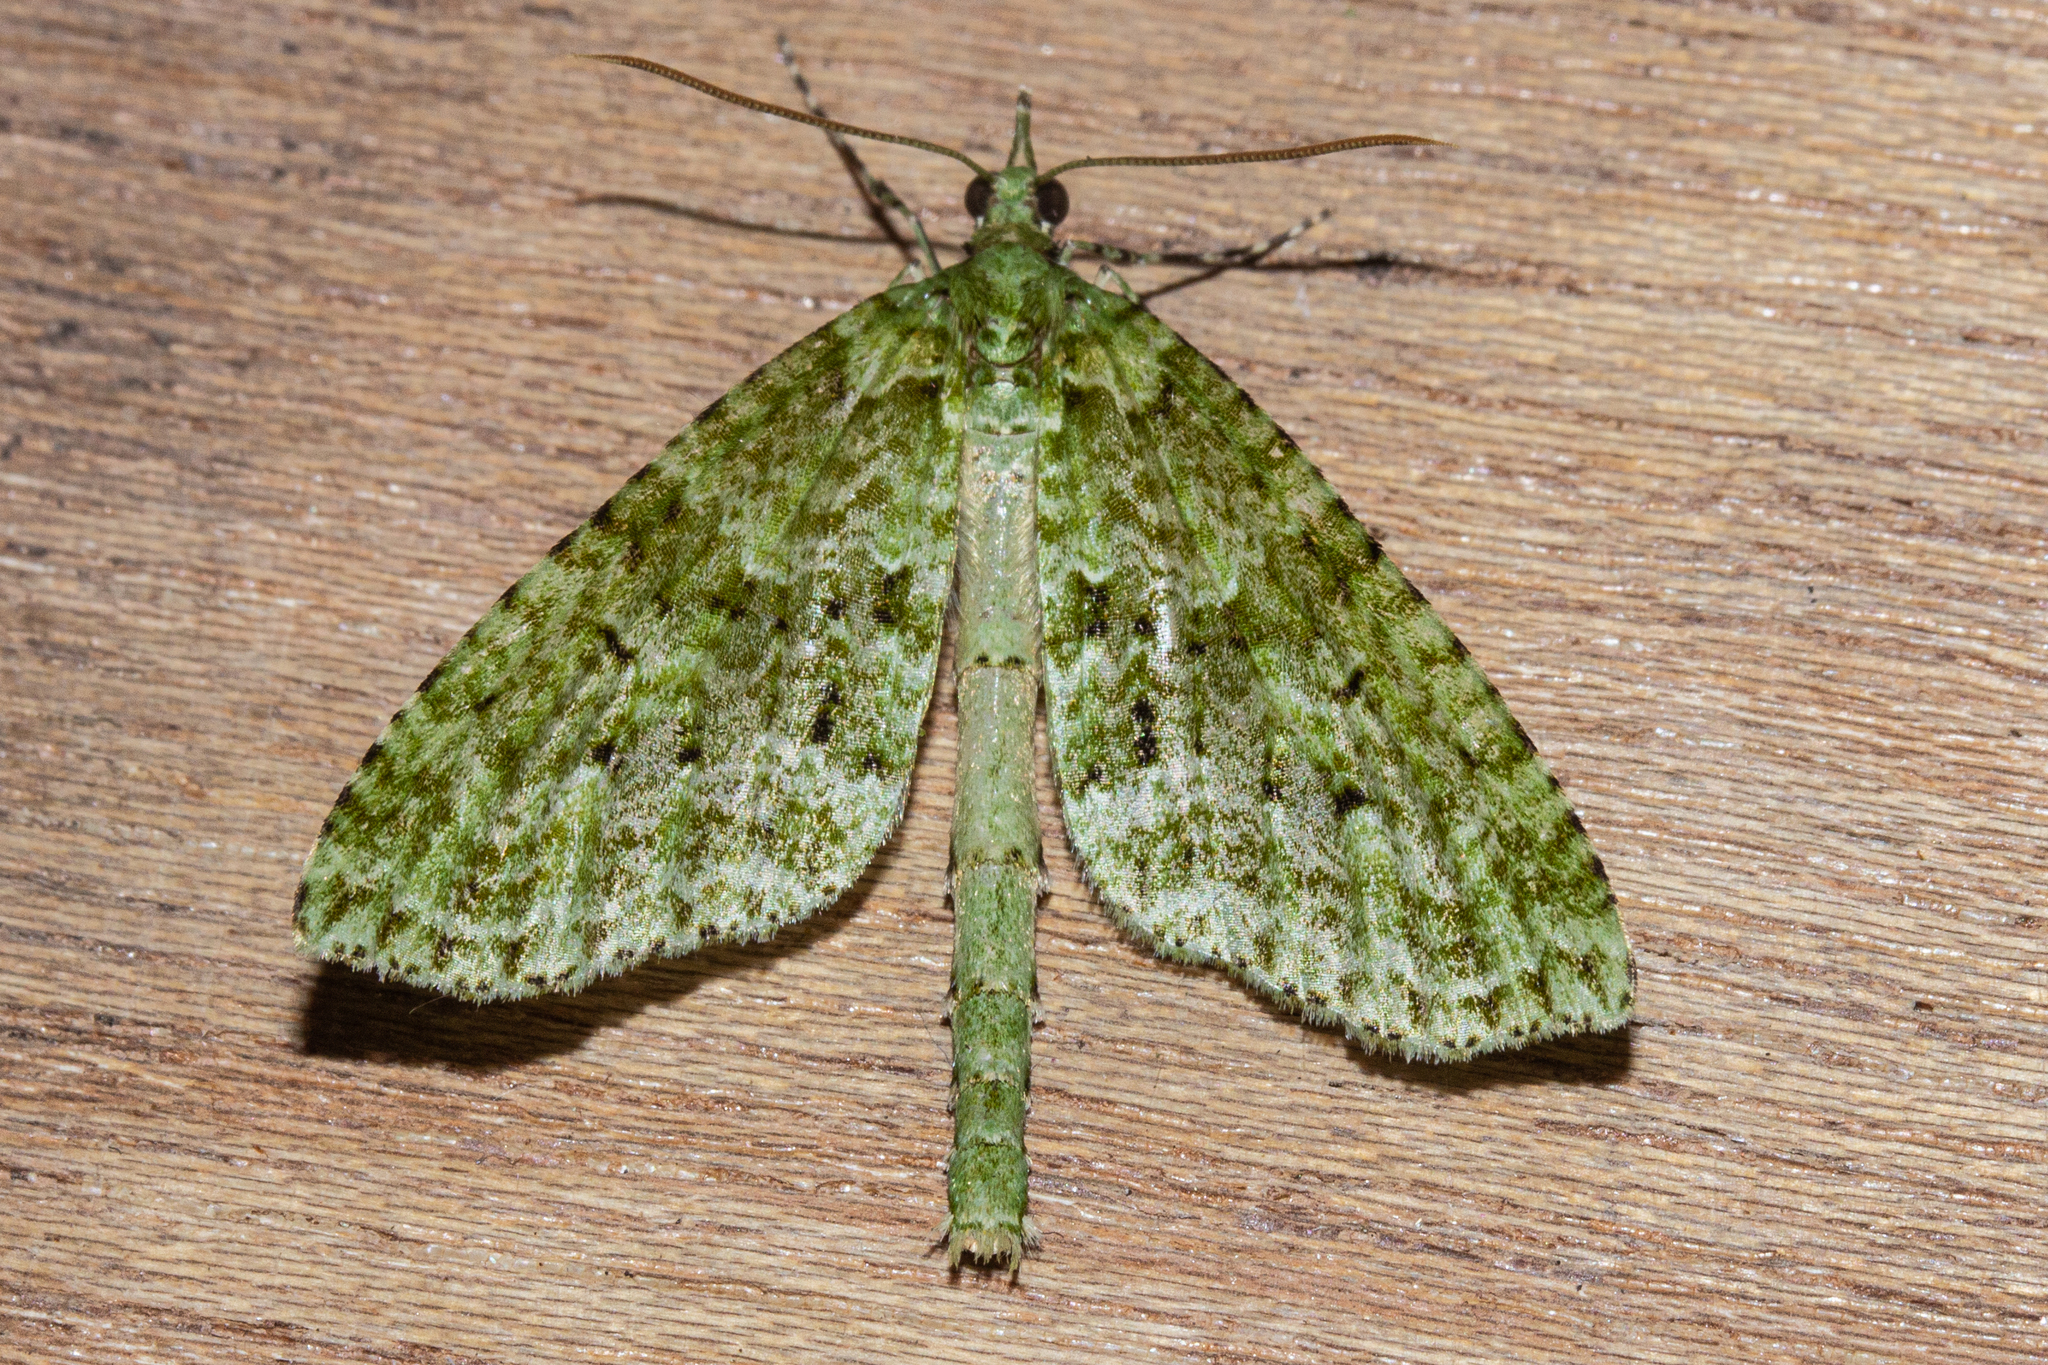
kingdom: Animalia
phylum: Arthropoda
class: Insecta
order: Lepidoptera
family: Geometridae
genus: Tatosoma
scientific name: Tatosoma tipulata
